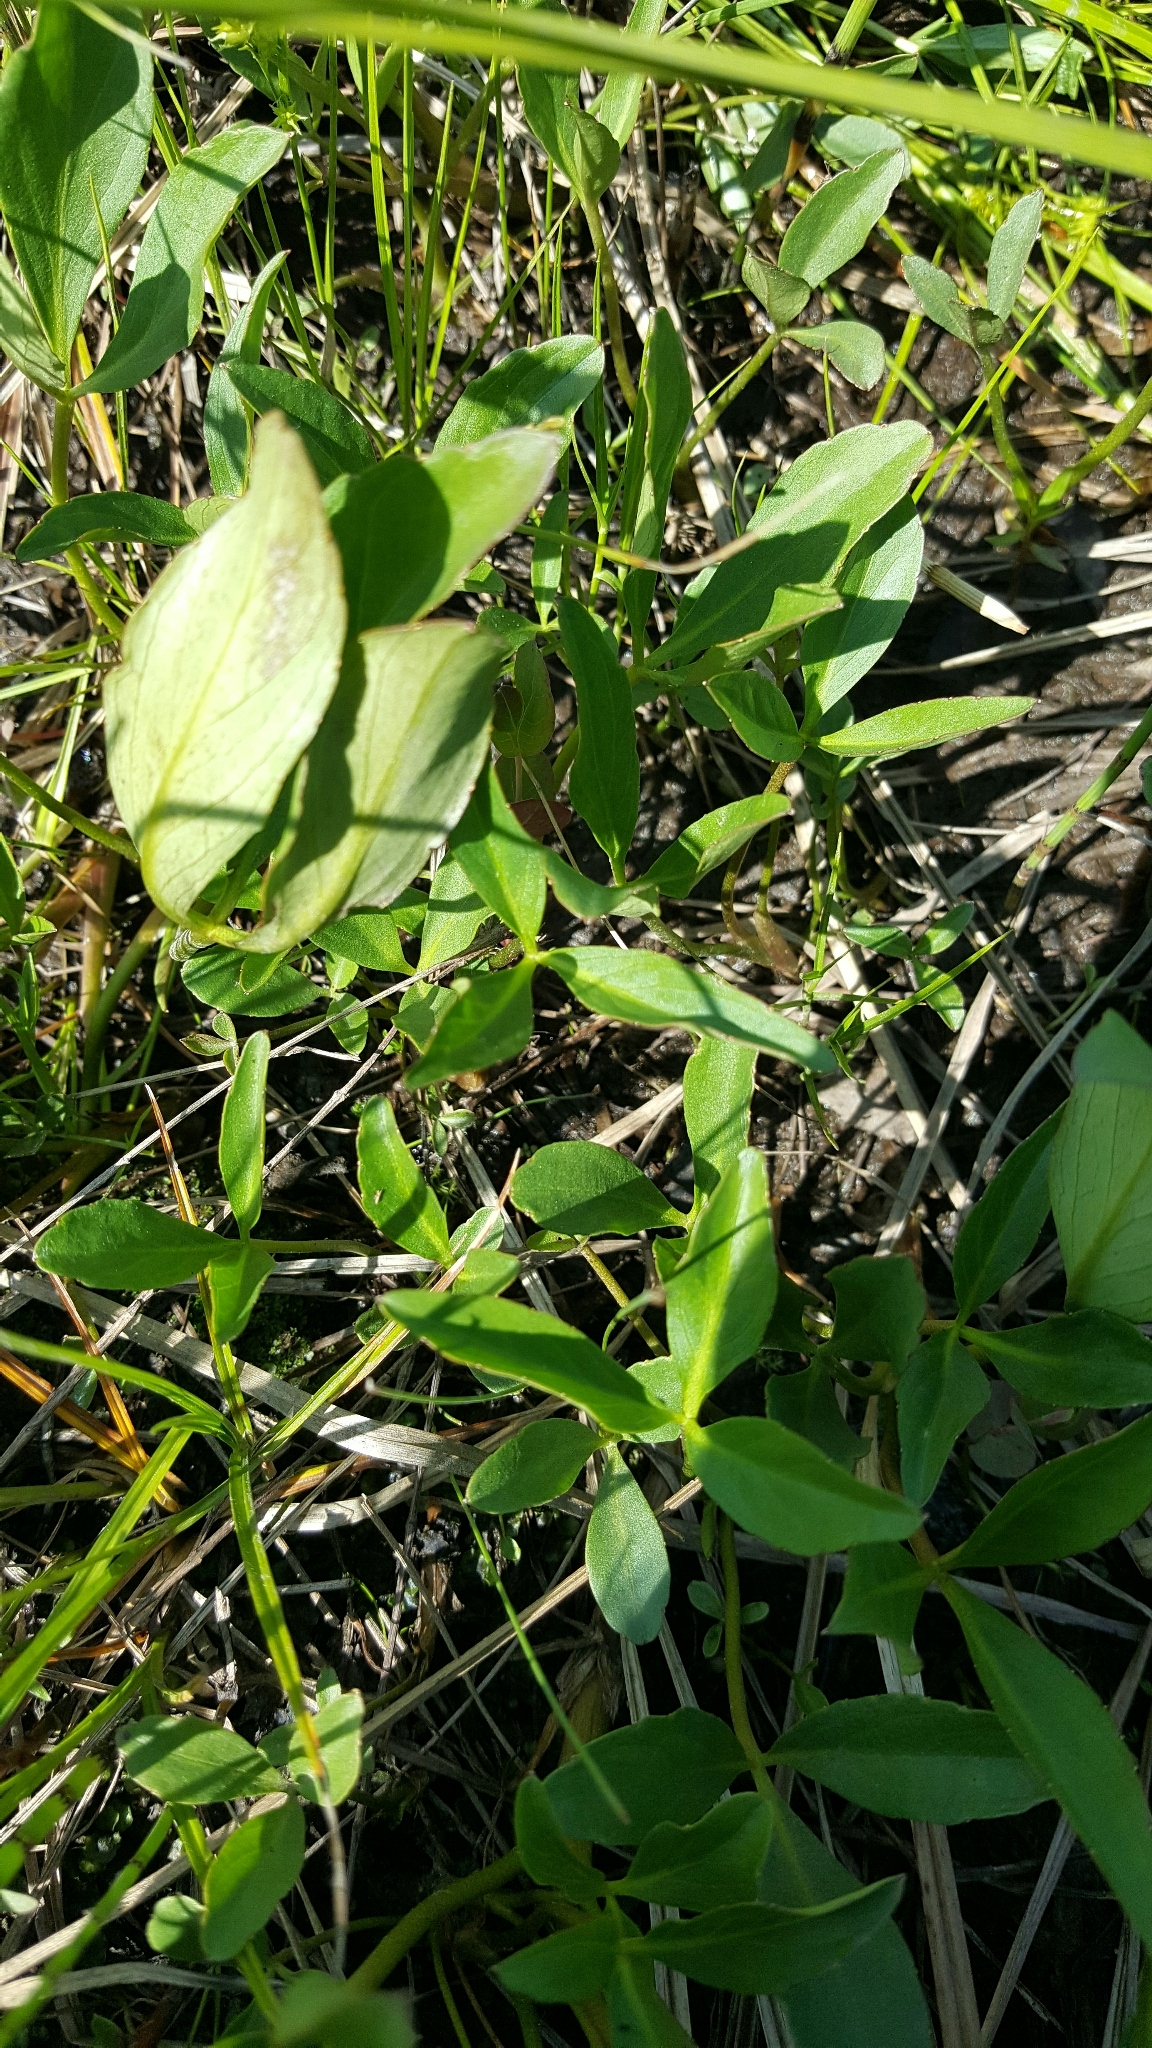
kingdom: Plantae
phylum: Tracheophyta
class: Magnoliopsida
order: Asterales
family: Menyanthaceae
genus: Menyanthes
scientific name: Menyanthes trifoliata
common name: Bogbean
